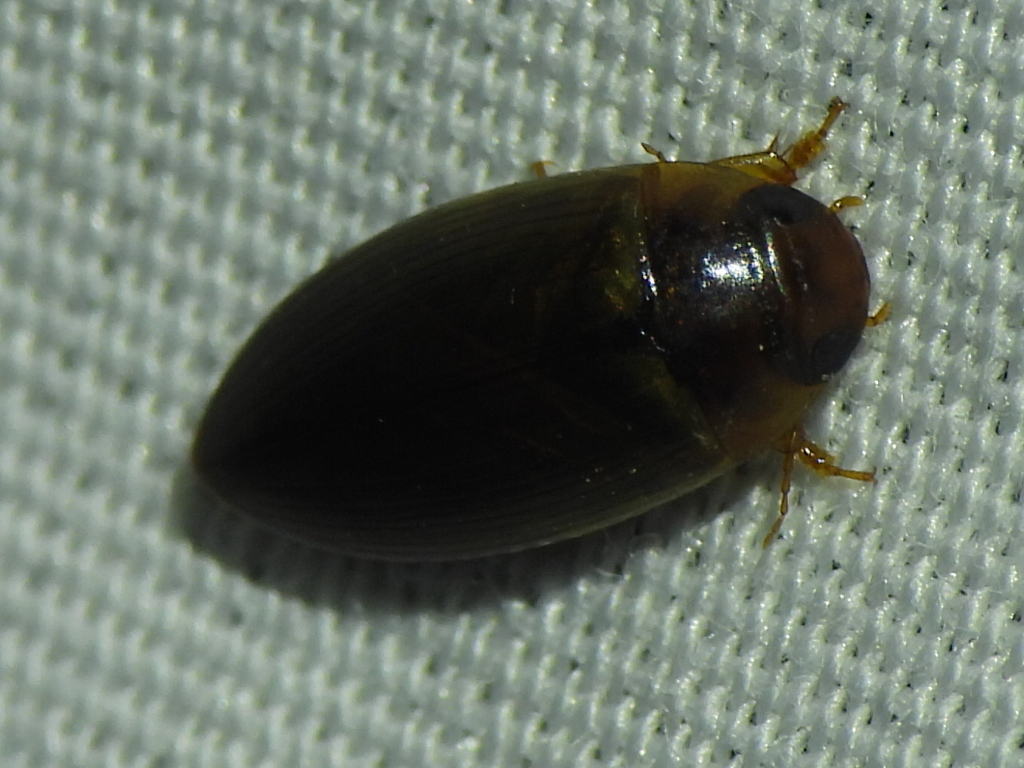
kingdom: Animalia
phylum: Arthropoda
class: Insecta
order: Coleoptera
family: Dytiscidae
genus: Copelatus
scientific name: Copelatus chevrolati
